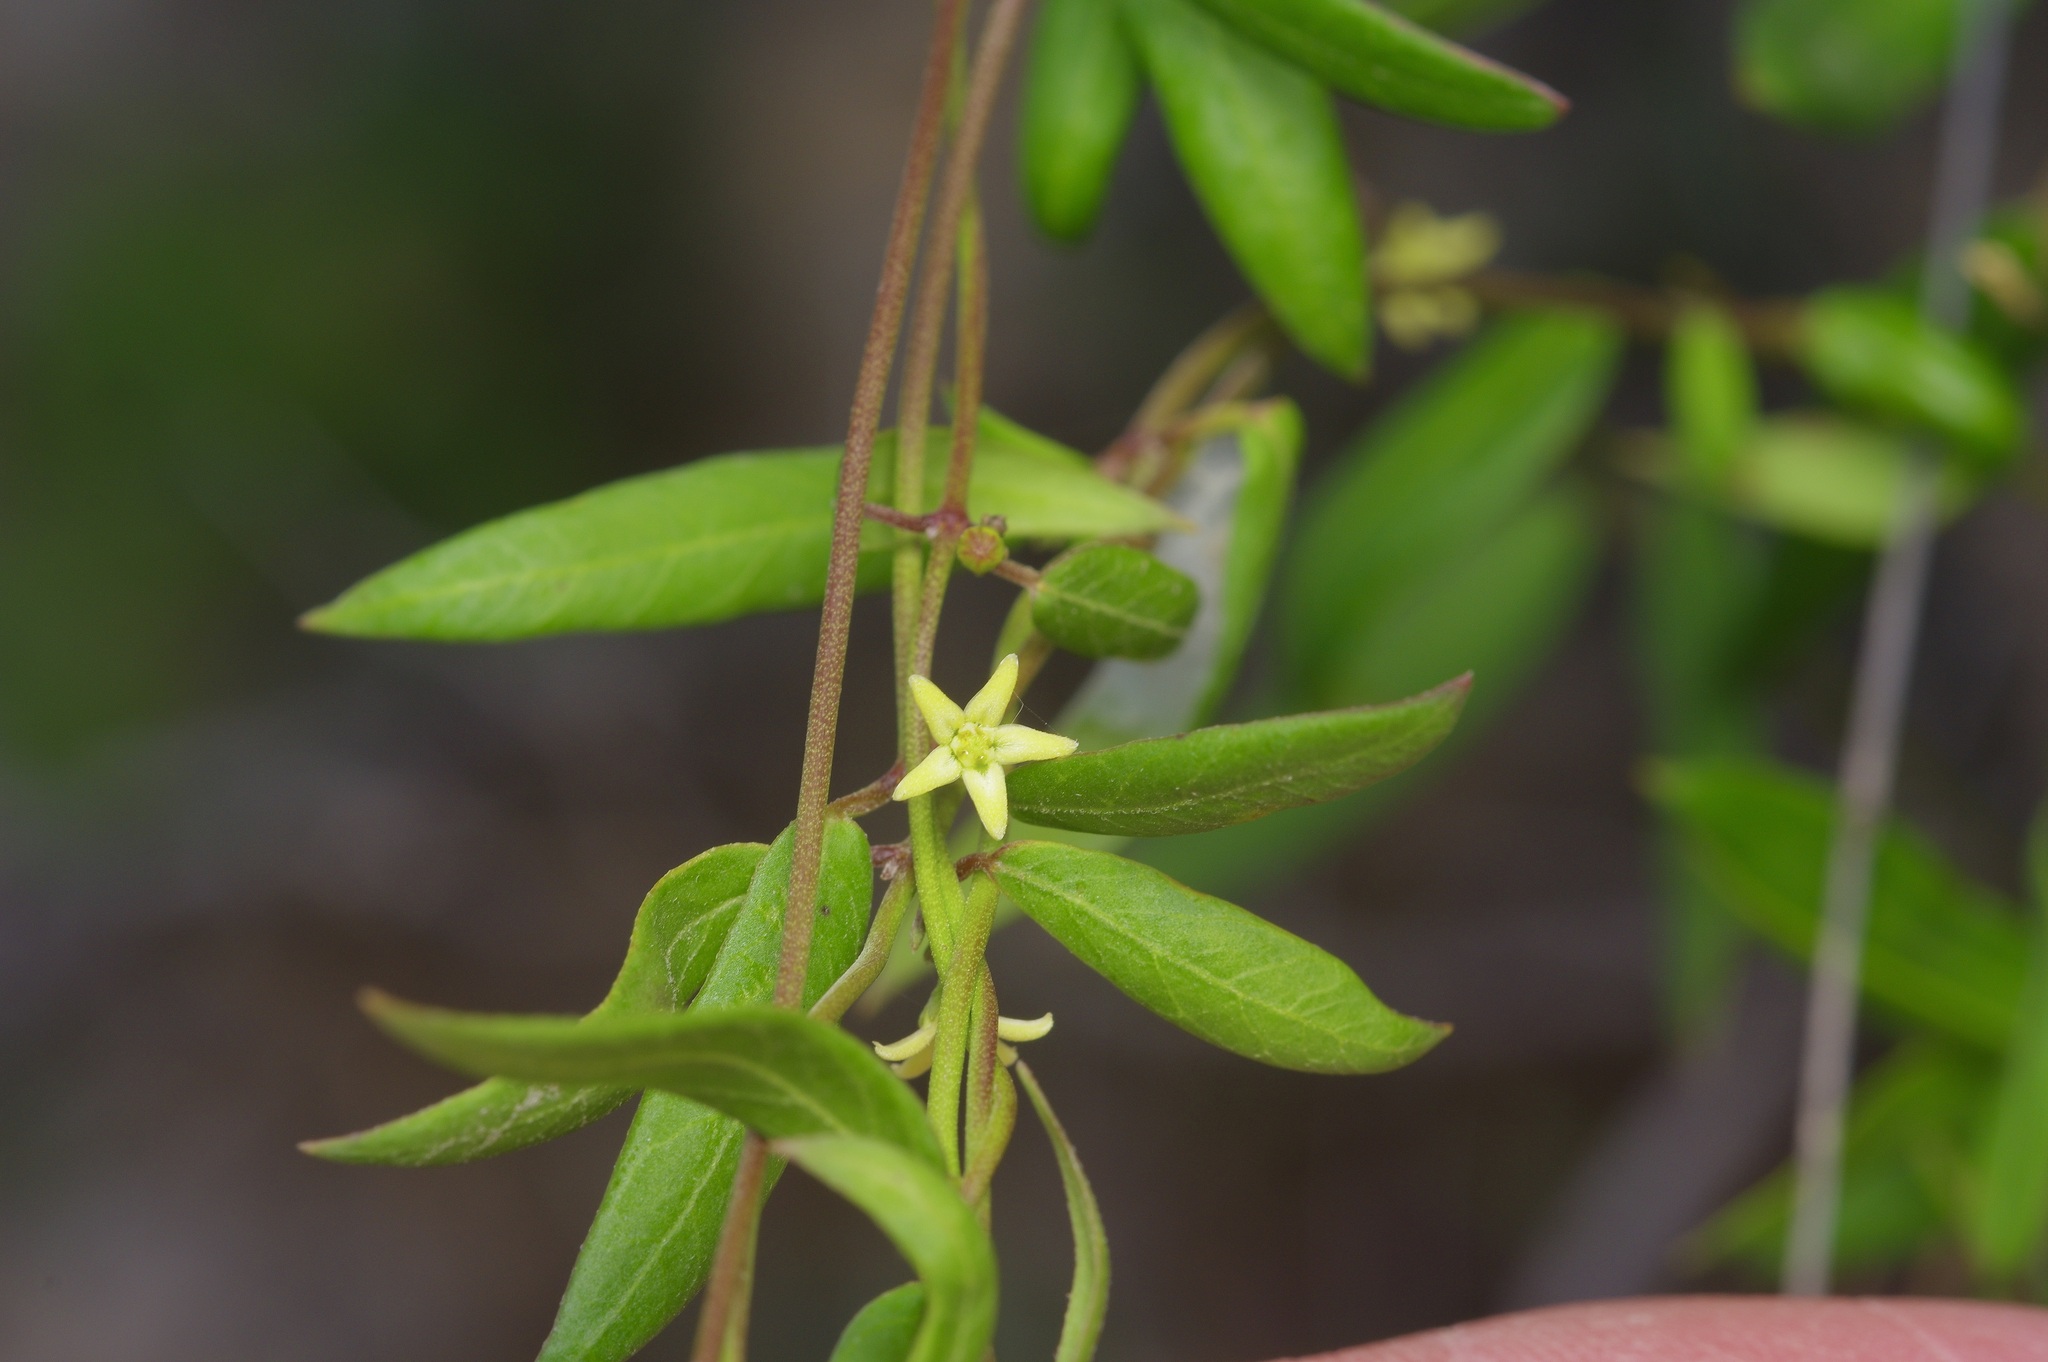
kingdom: Plantae
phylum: Tracheophyta
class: Magnoliopsida
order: Gentianales
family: Apocynaceae
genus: Metastelma
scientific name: Metastelma palmeri
